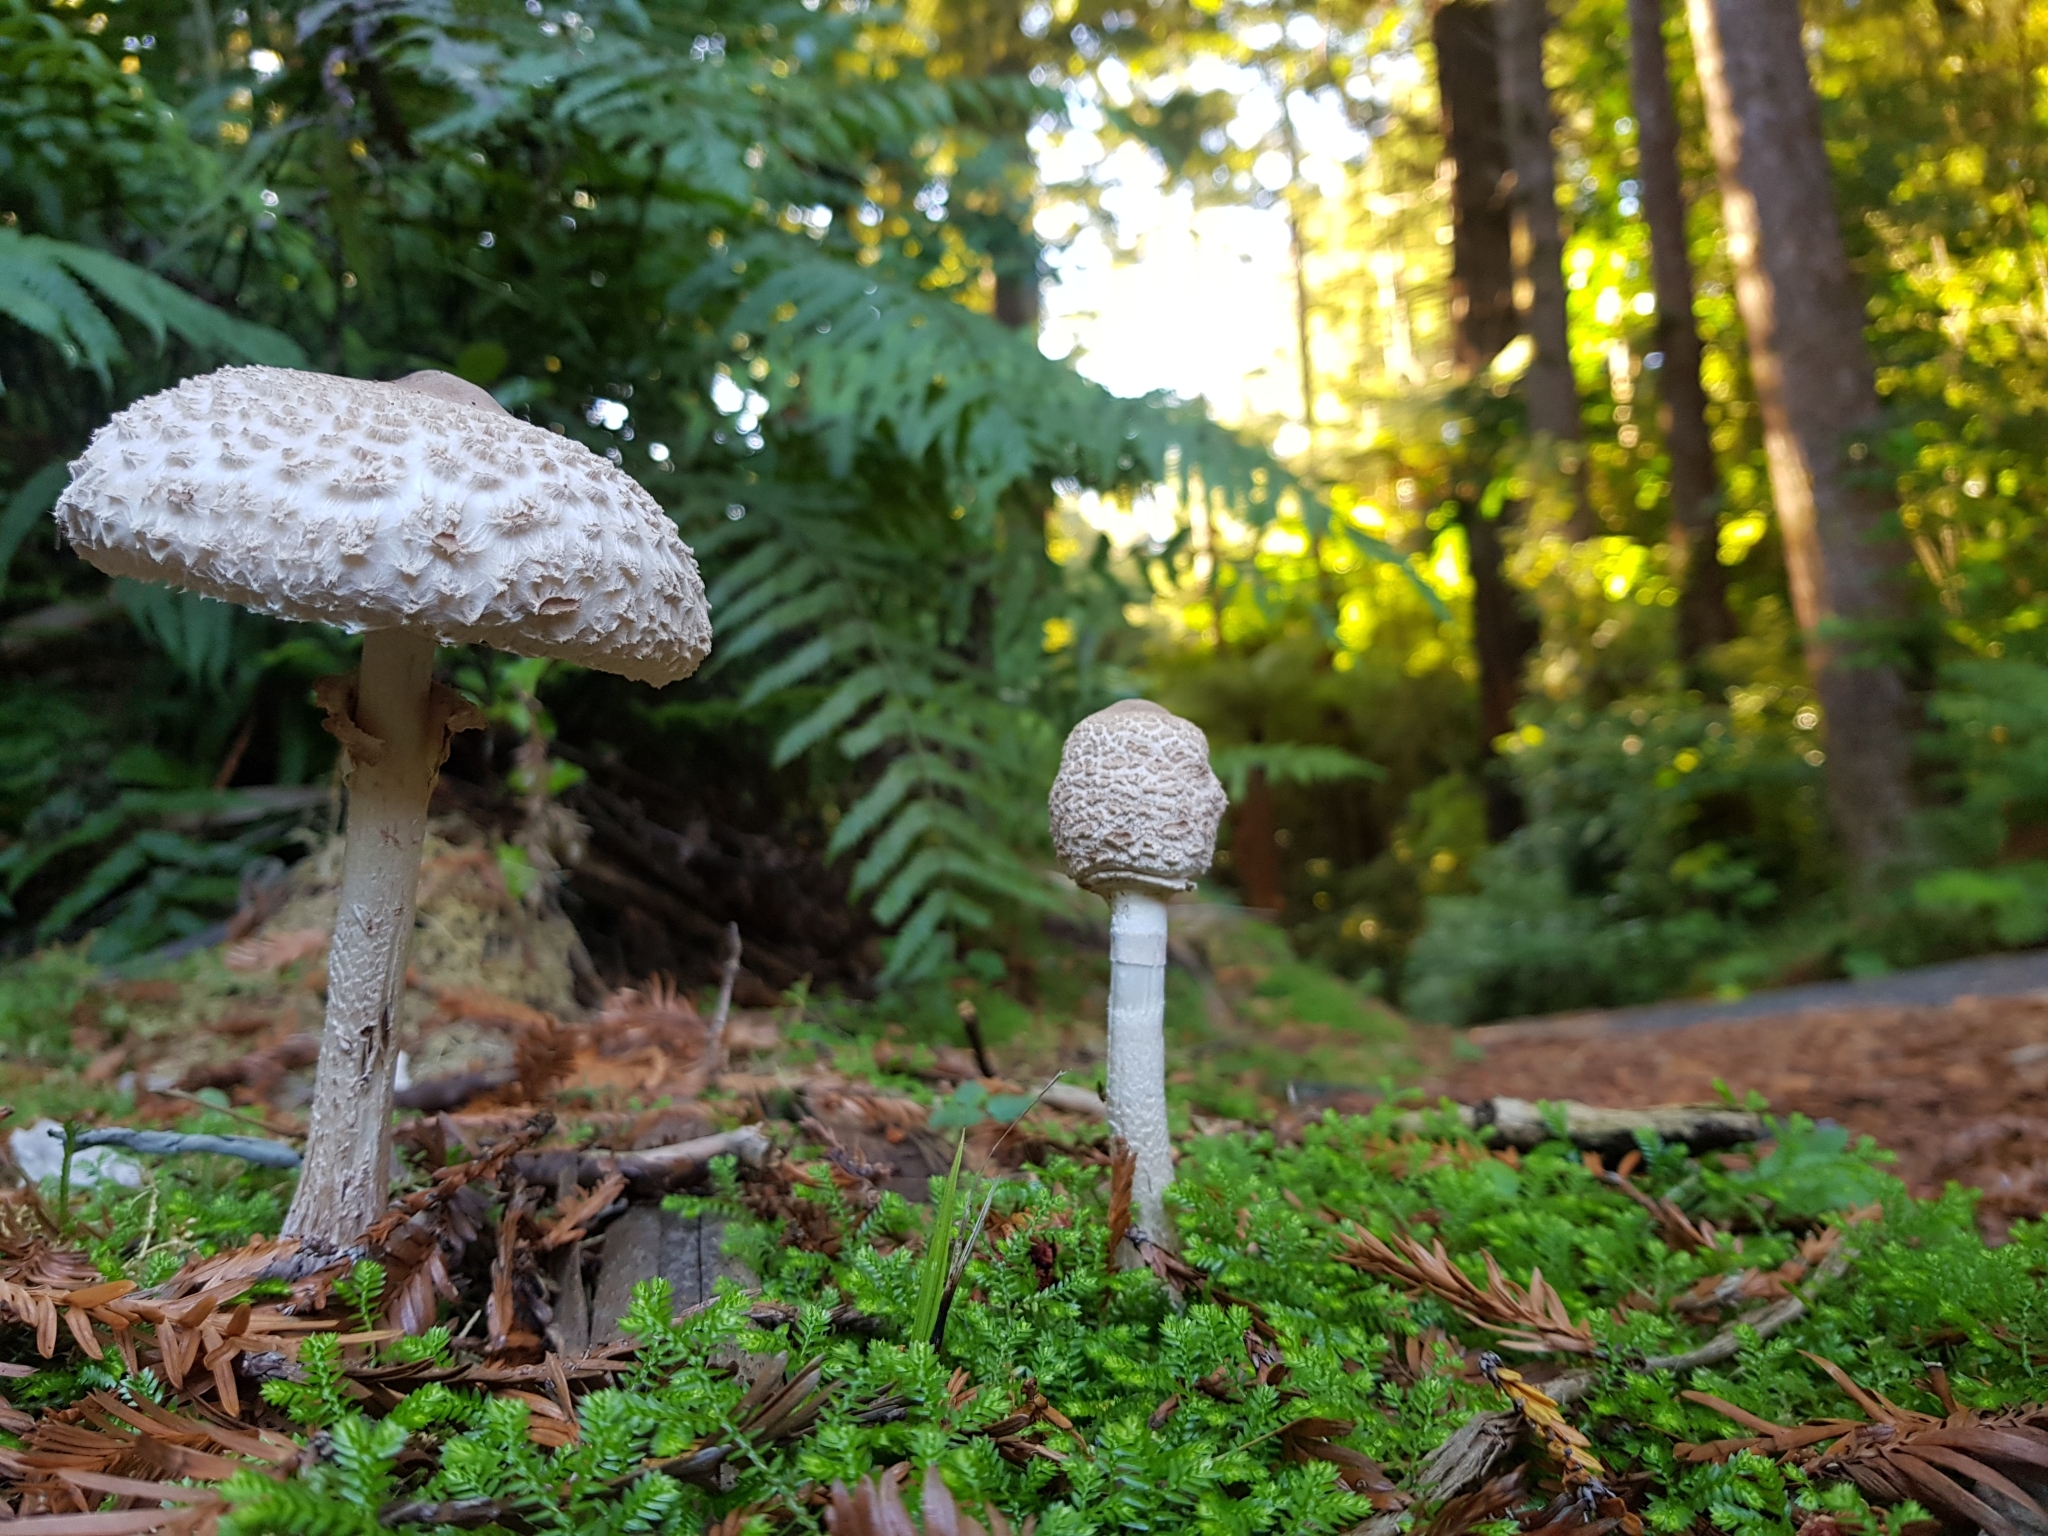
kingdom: Fungi
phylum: Basidiomycota
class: Agaricomycetes
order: Agaricales
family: Agaricaceae
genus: Macrolepiota
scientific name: Macrolepiota clelandii
